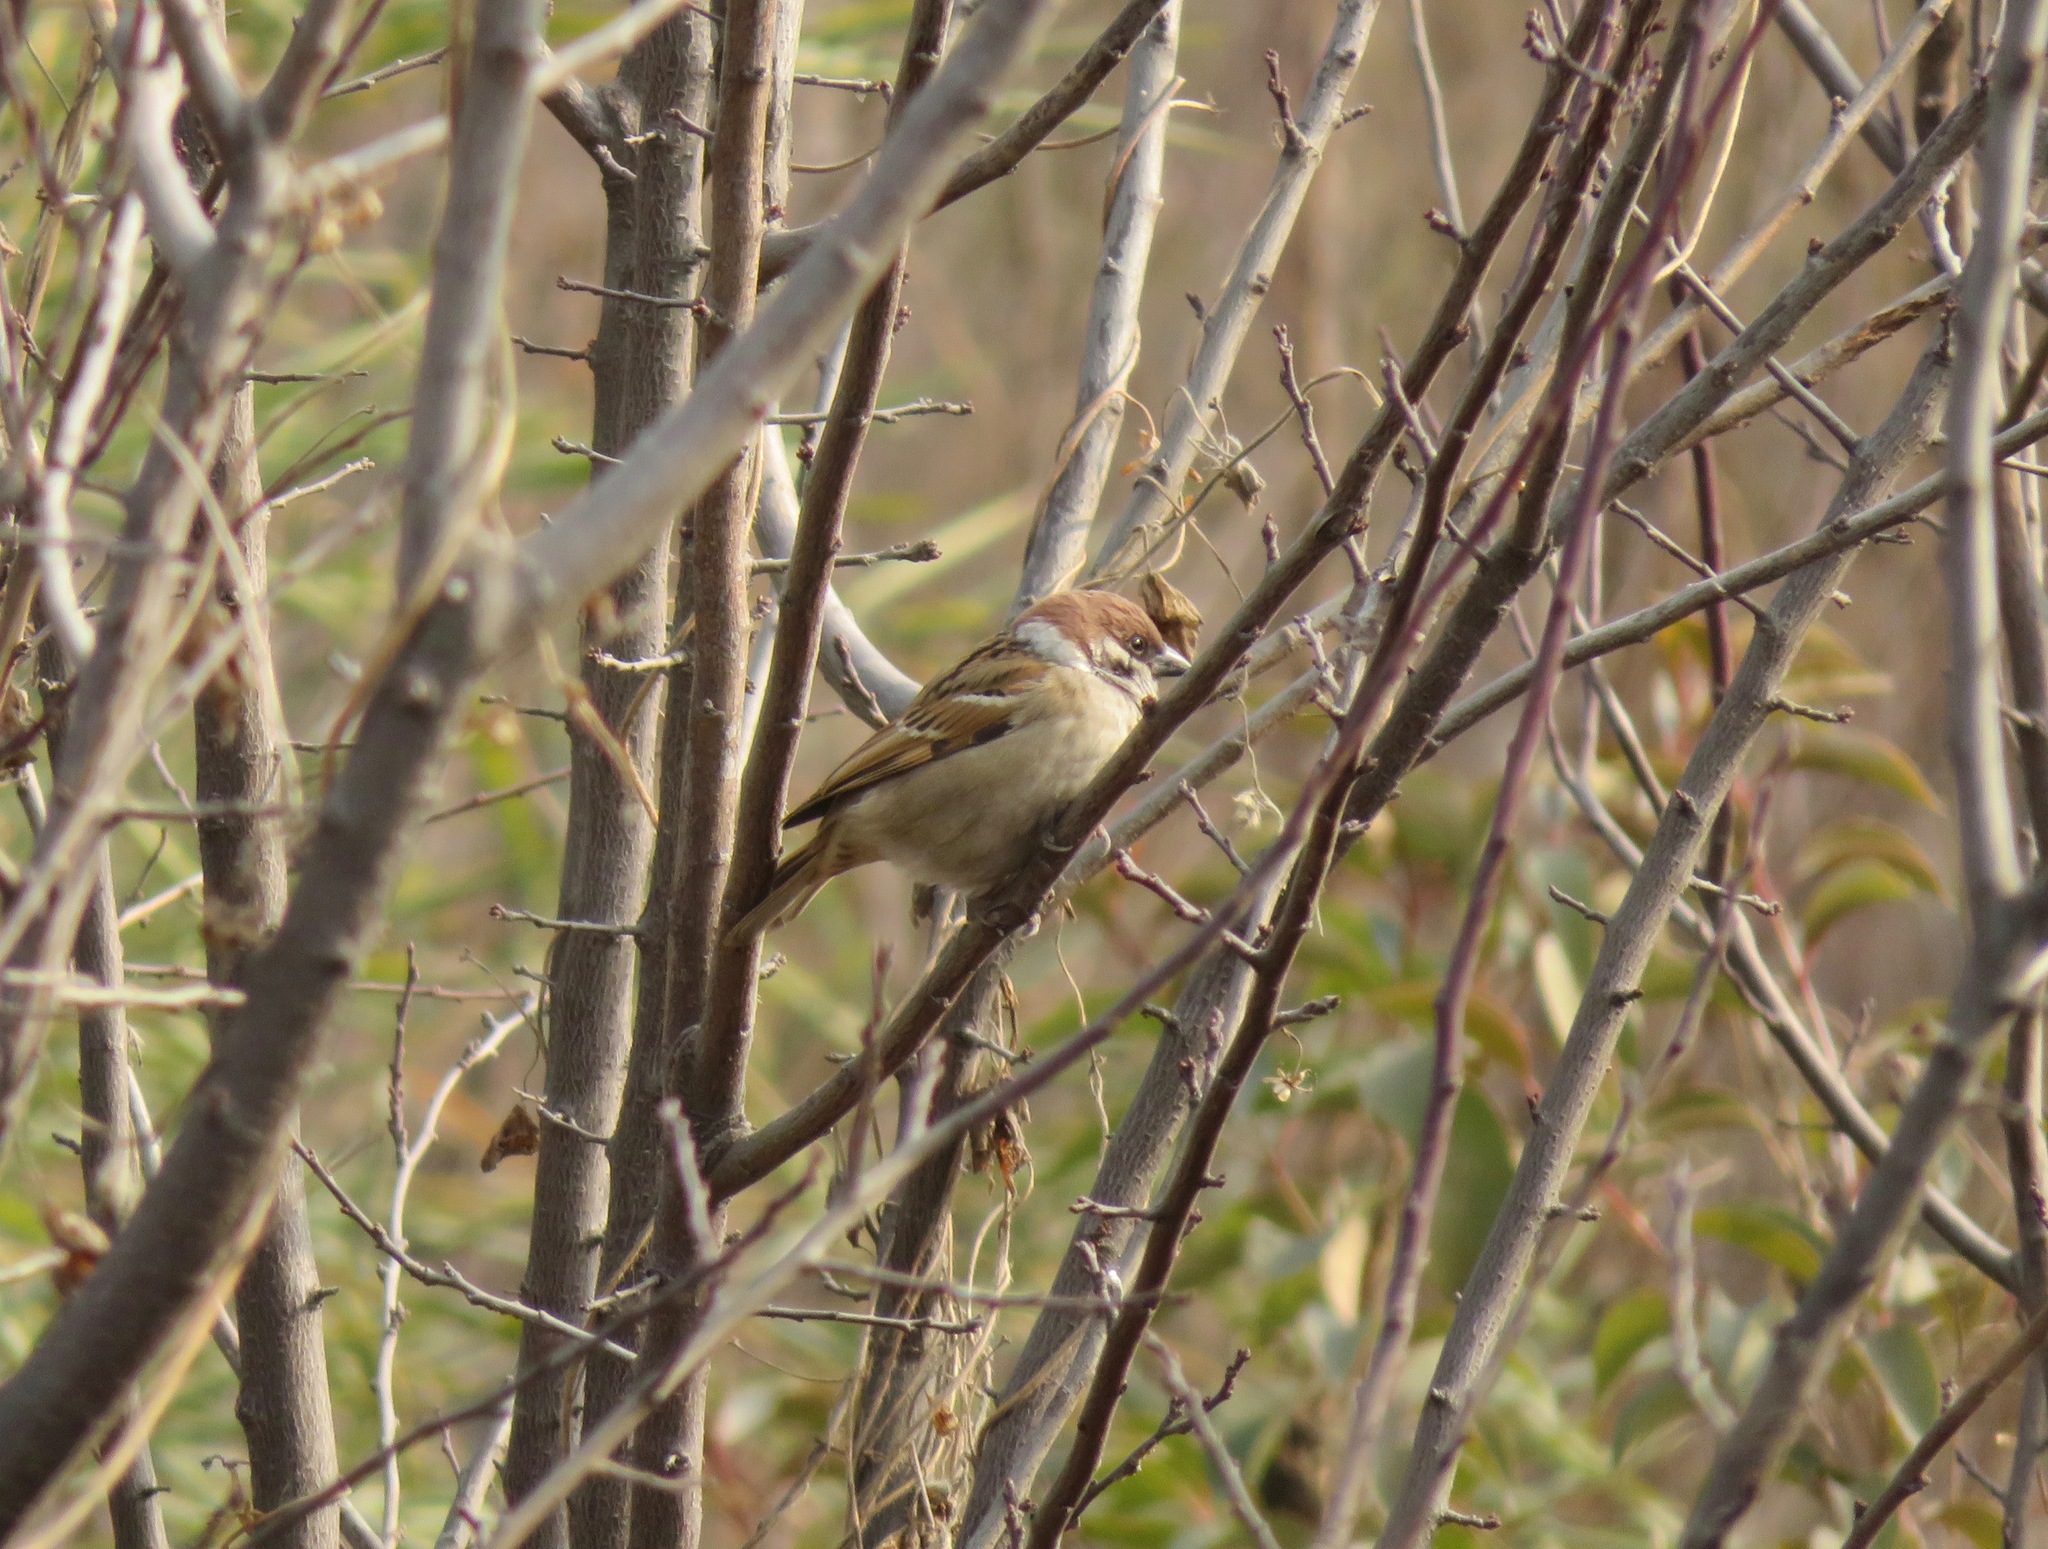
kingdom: Animalia
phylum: Chordata
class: Aves
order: Passeriformes
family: Passeridae
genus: Passer
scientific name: Passer montanus
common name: Eurasian tree sparrow
